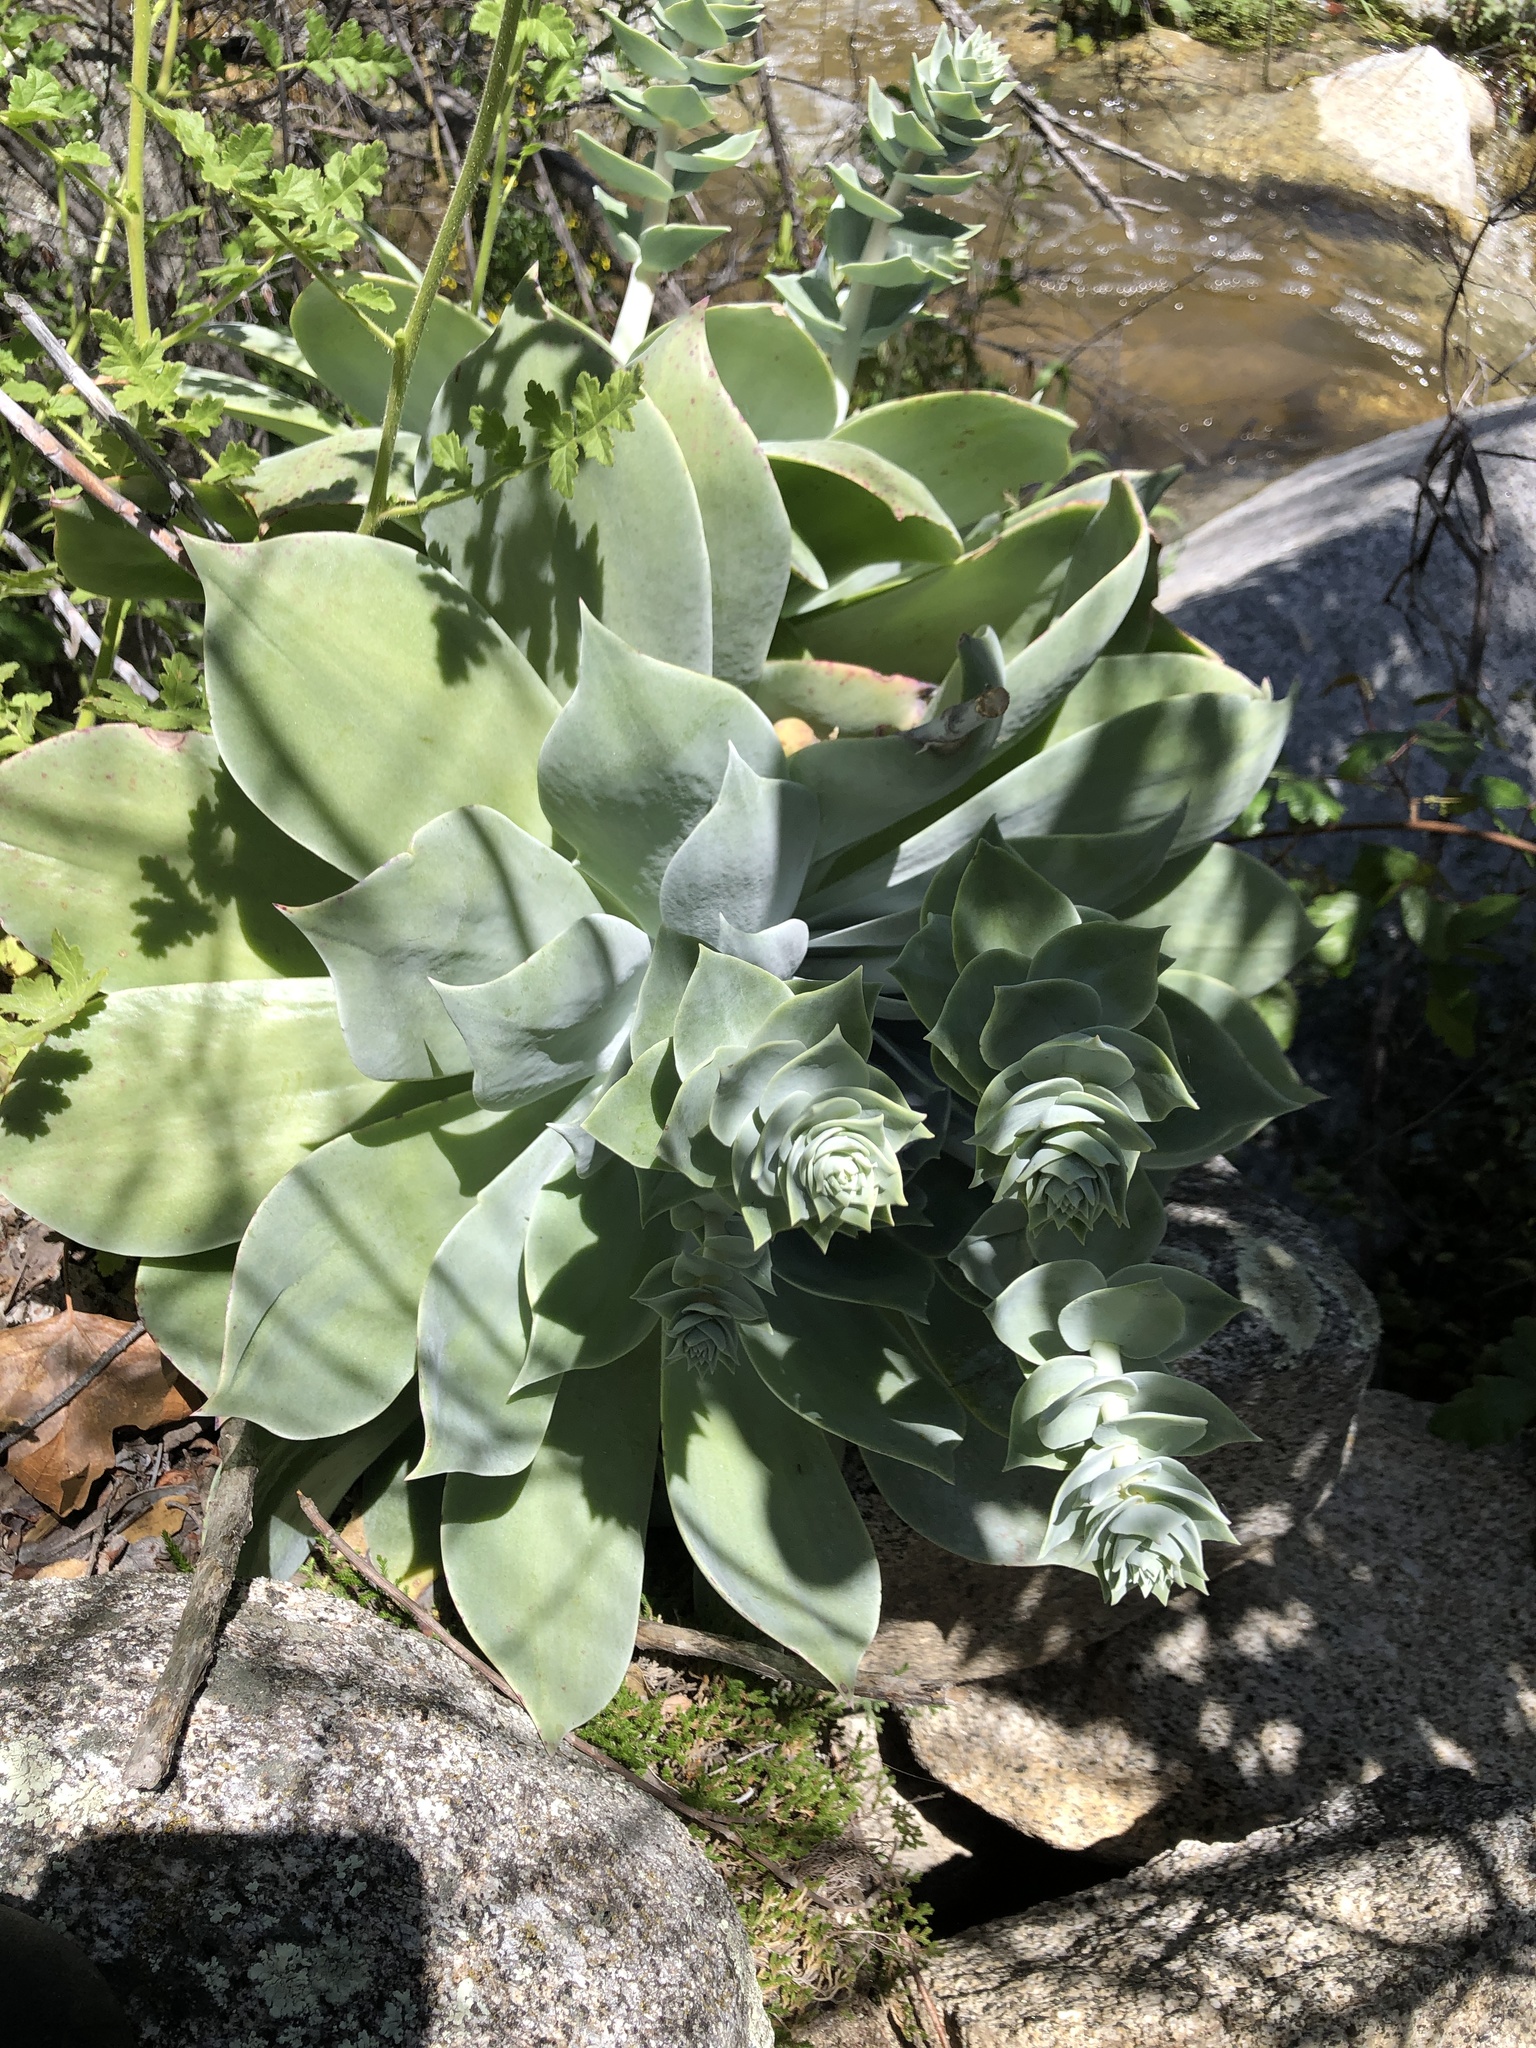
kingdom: Plantae
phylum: Tracheophyta
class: Magnoliopsida
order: Saxifragales
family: Crassulaceae
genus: Dudleya
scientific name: Dudleya pulverulenta
